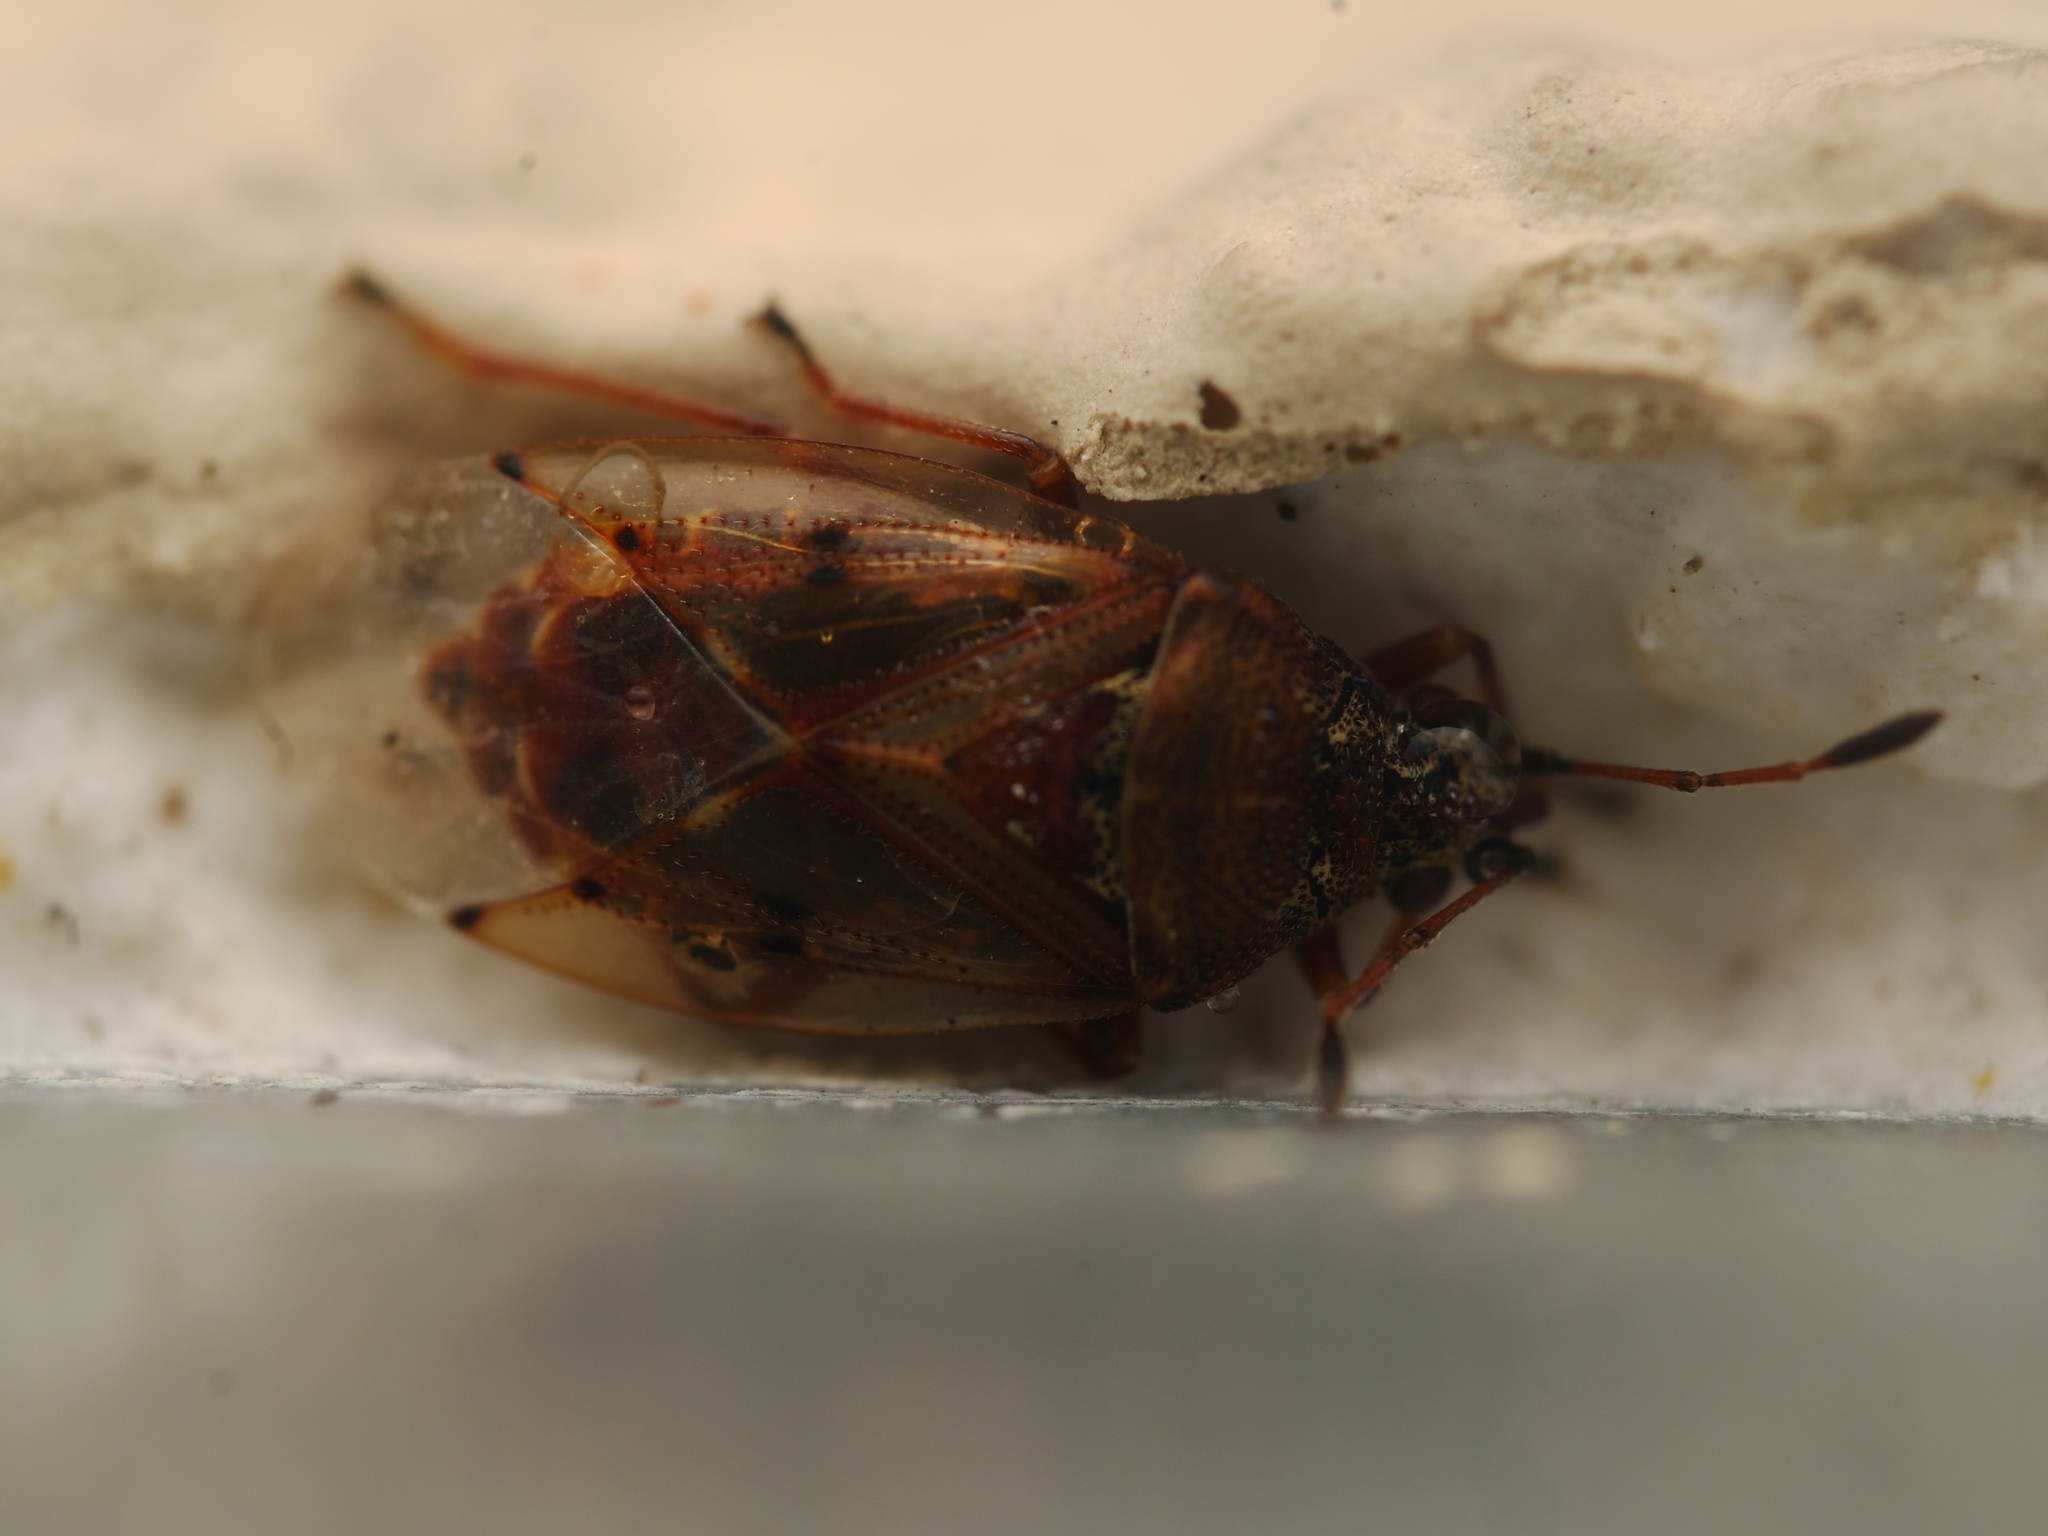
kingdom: Animalia
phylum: Arthropoda
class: Insecta
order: Hemiptera
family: Lygaeidae
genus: Kleidocerys
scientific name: Kleidocerys resedae
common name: Birch catkin bug
